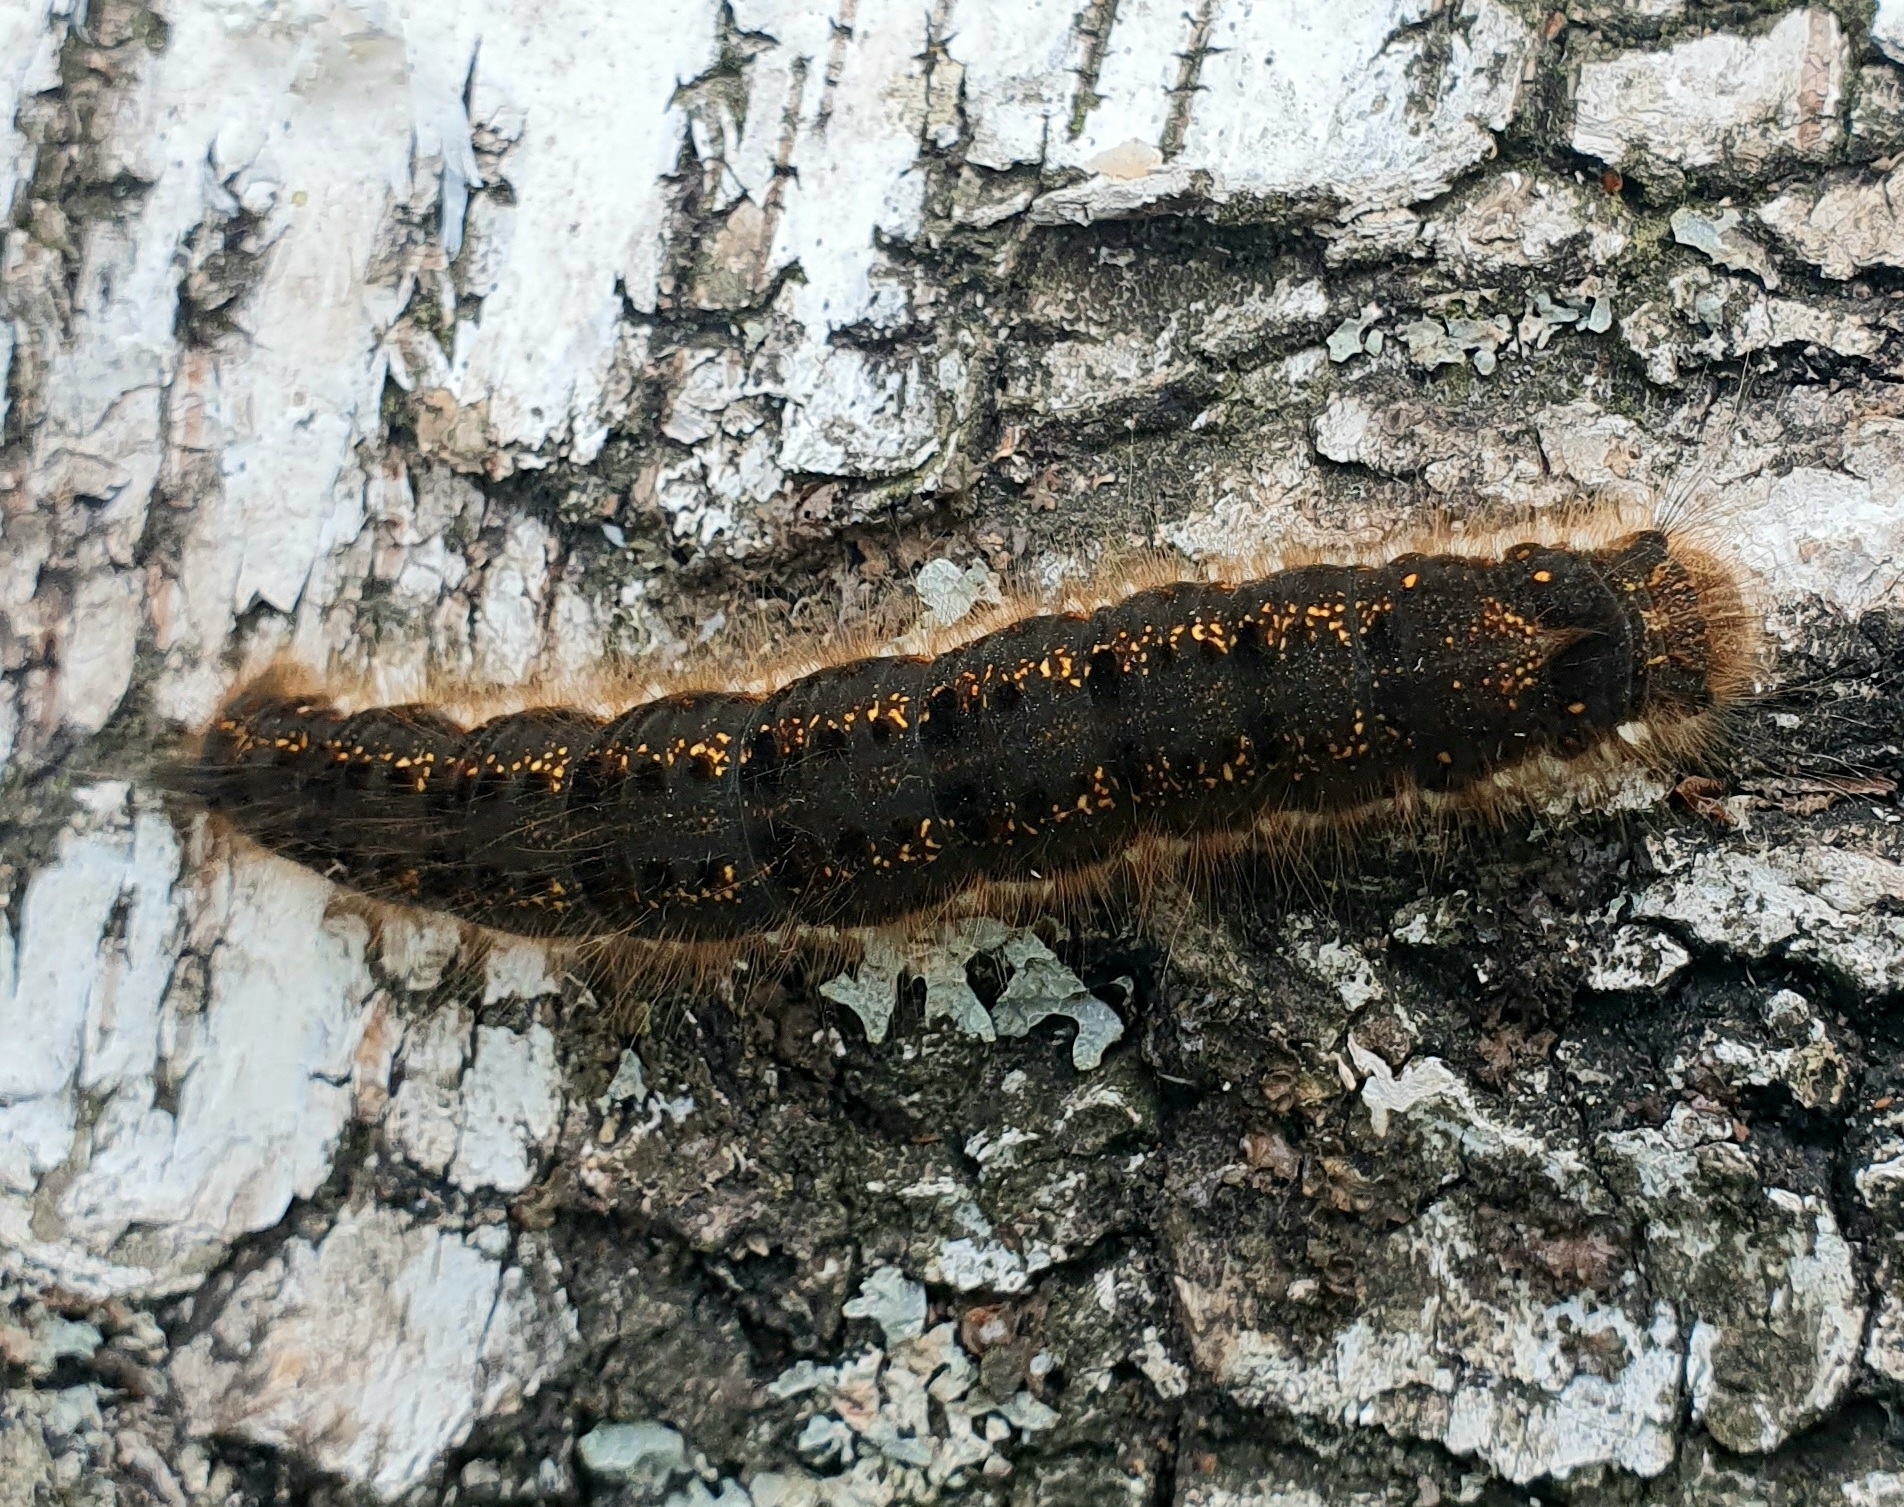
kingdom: Animalia
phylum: Arthropoda
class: Insecta
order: Lepidoptera
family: Lasiocampidae
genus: Euthrix
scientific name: Euthrix potatoria
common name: Drinker
